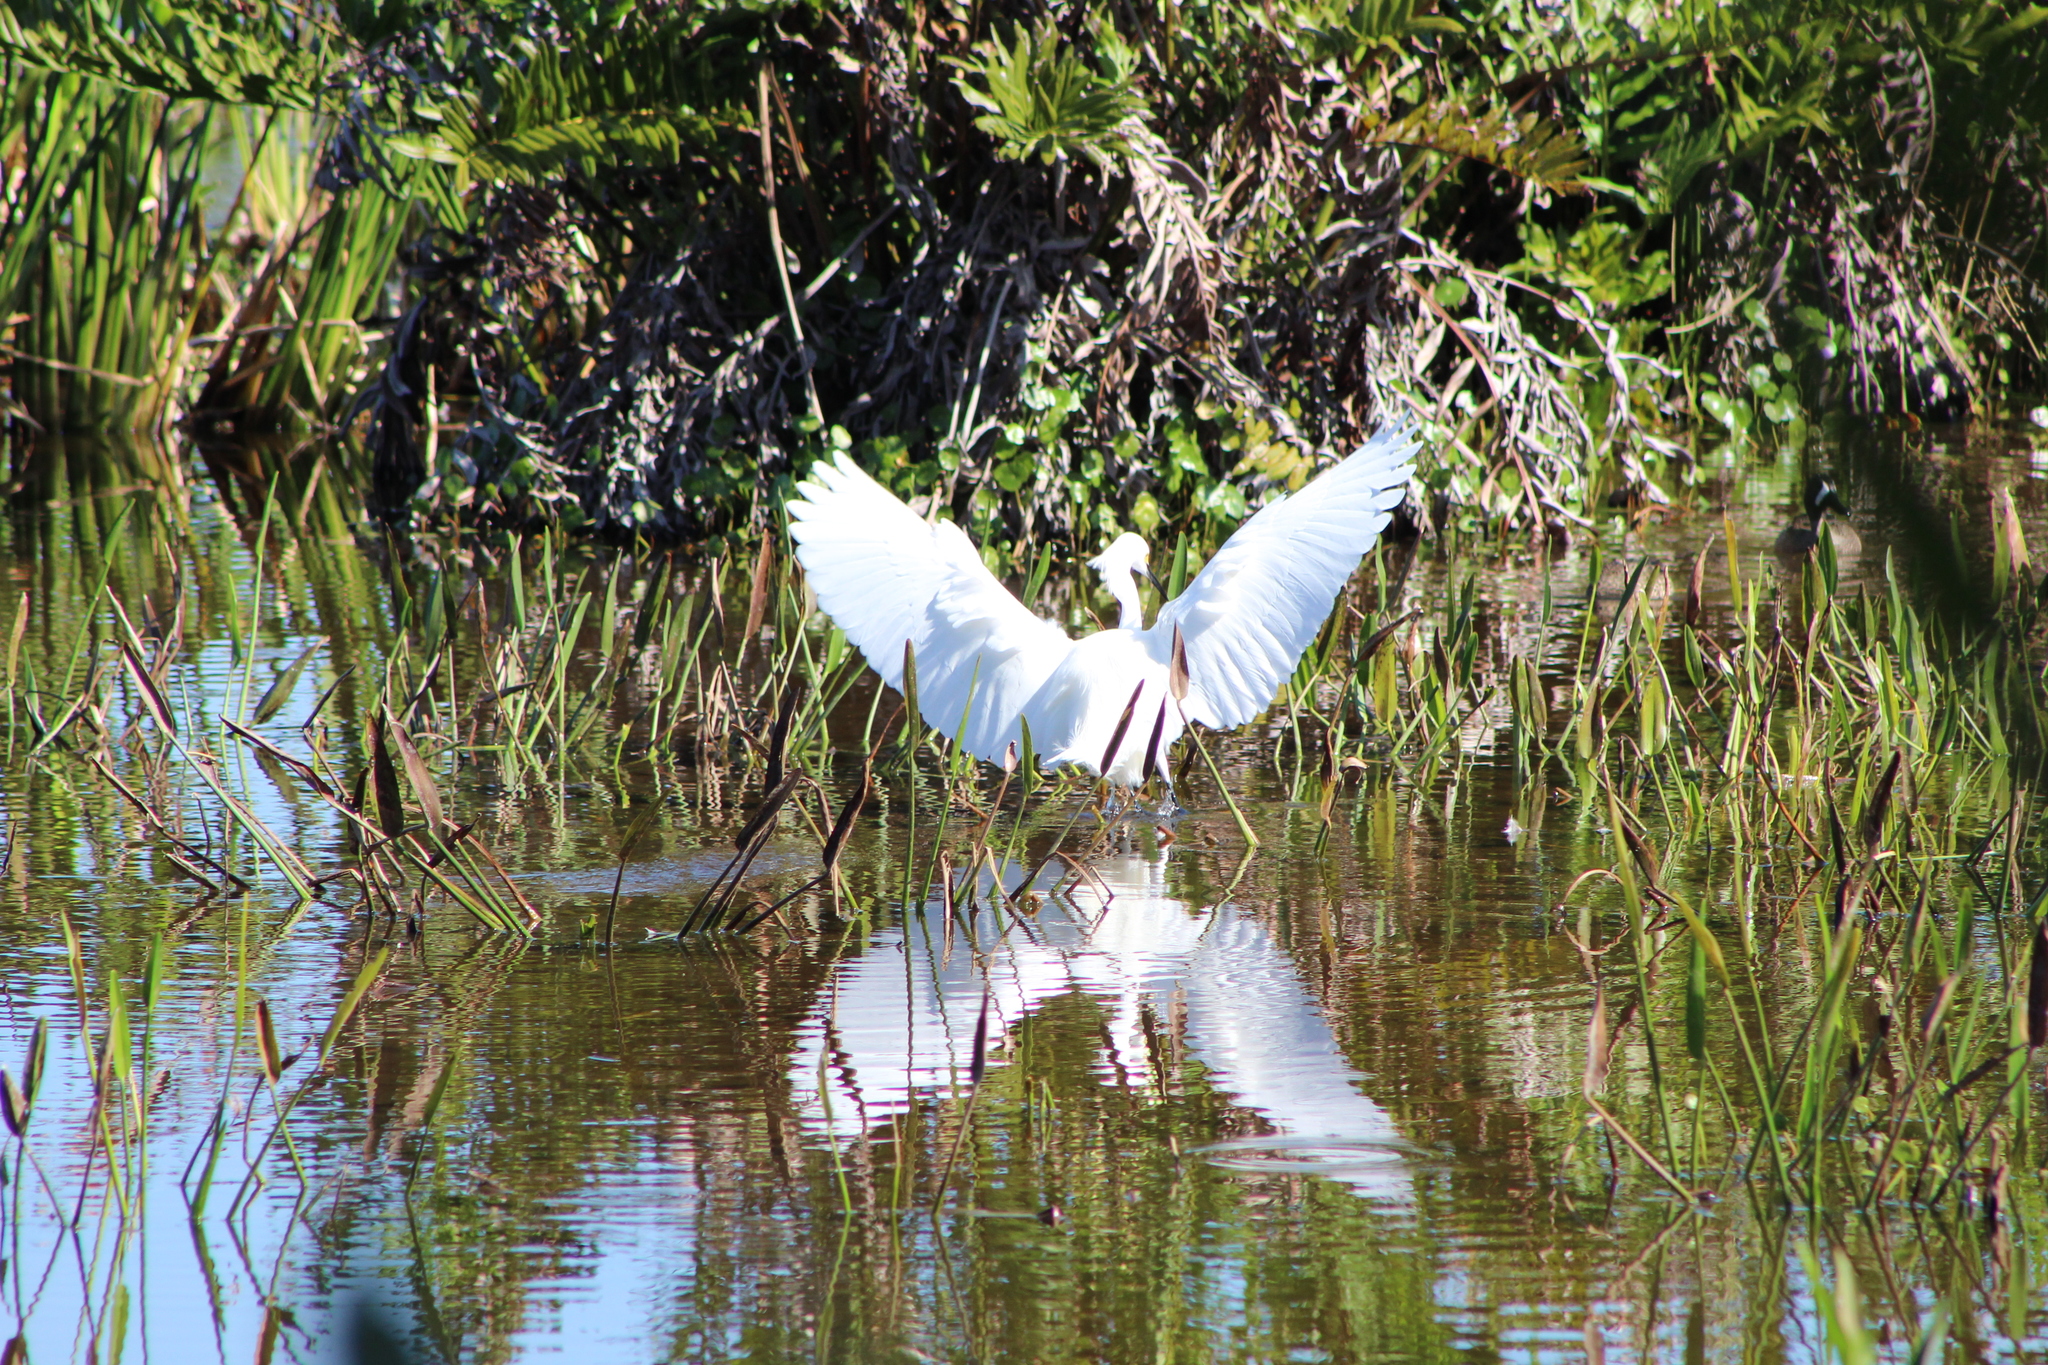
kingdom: Animalia
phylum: Chordata
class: Aves
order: Pelecaniformes
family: Ardeidae
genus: Egretta
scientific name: Egretta thula
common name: Snowy egret
